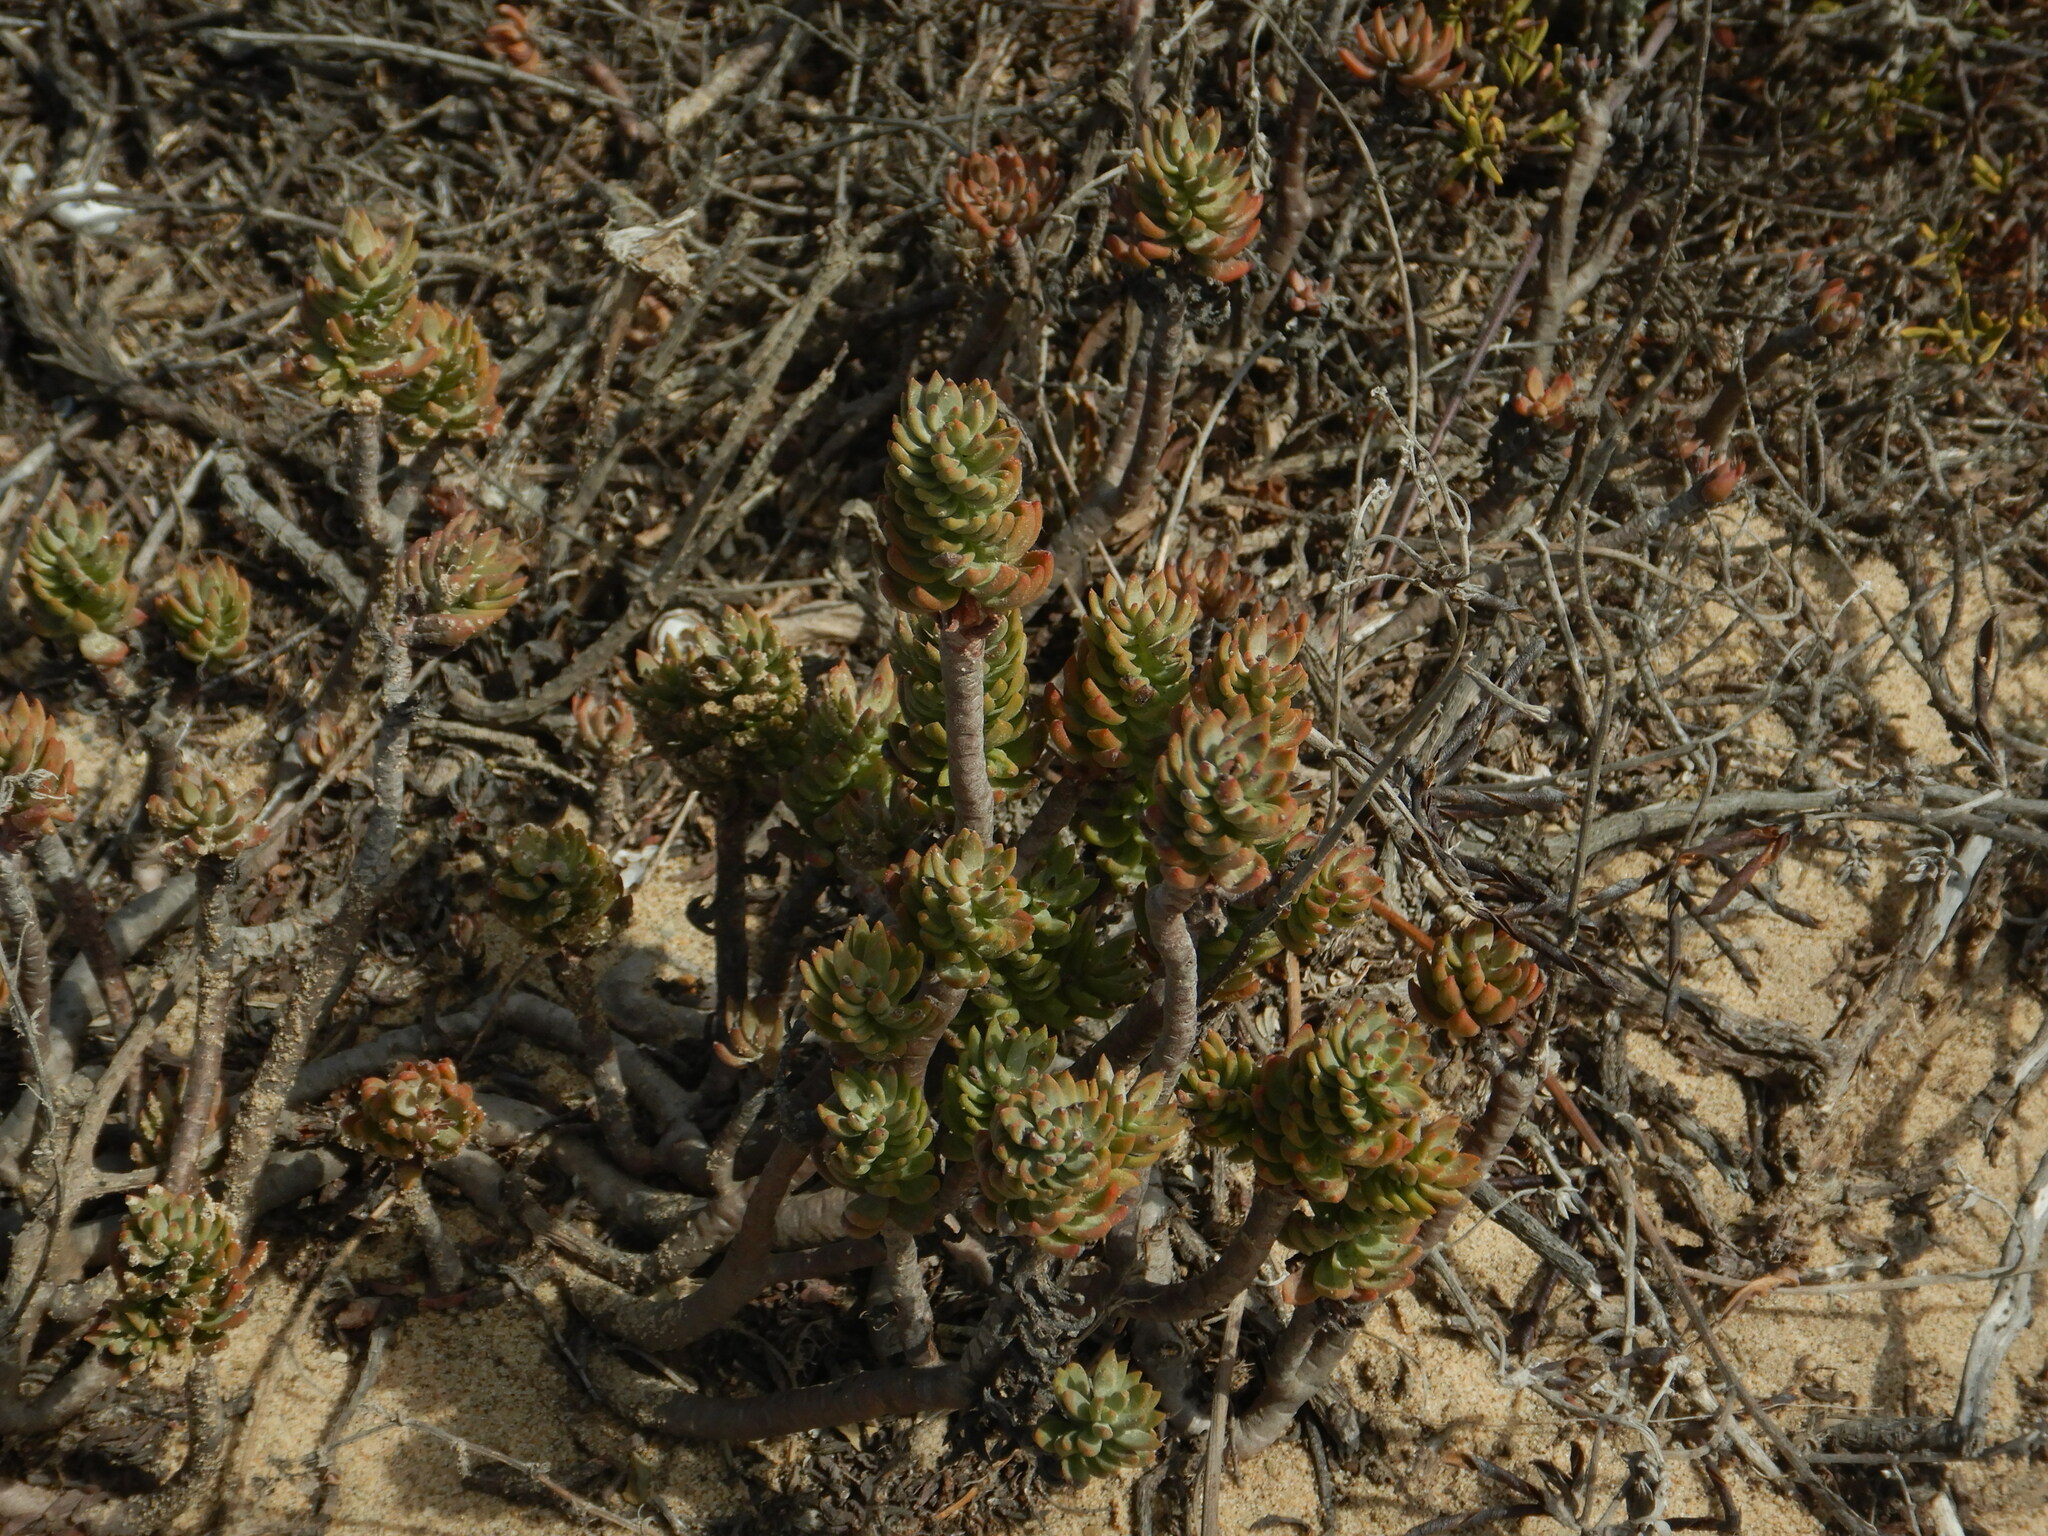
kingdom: Plantae
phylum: Tracheophyta
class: Magnoliopsida
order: Saxifragales
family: Crassulaceae
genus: Petrosedum
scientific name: Petrosedum sediforme
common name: Pale stonecrop
